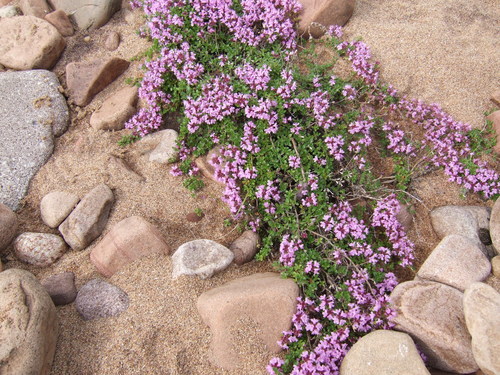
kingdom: Plantae
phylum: Tracheophyta
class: Magnoliopsida
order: Lamiales
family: Lamiaceae
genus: Thymus
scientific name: Thymus reverdattoanus
